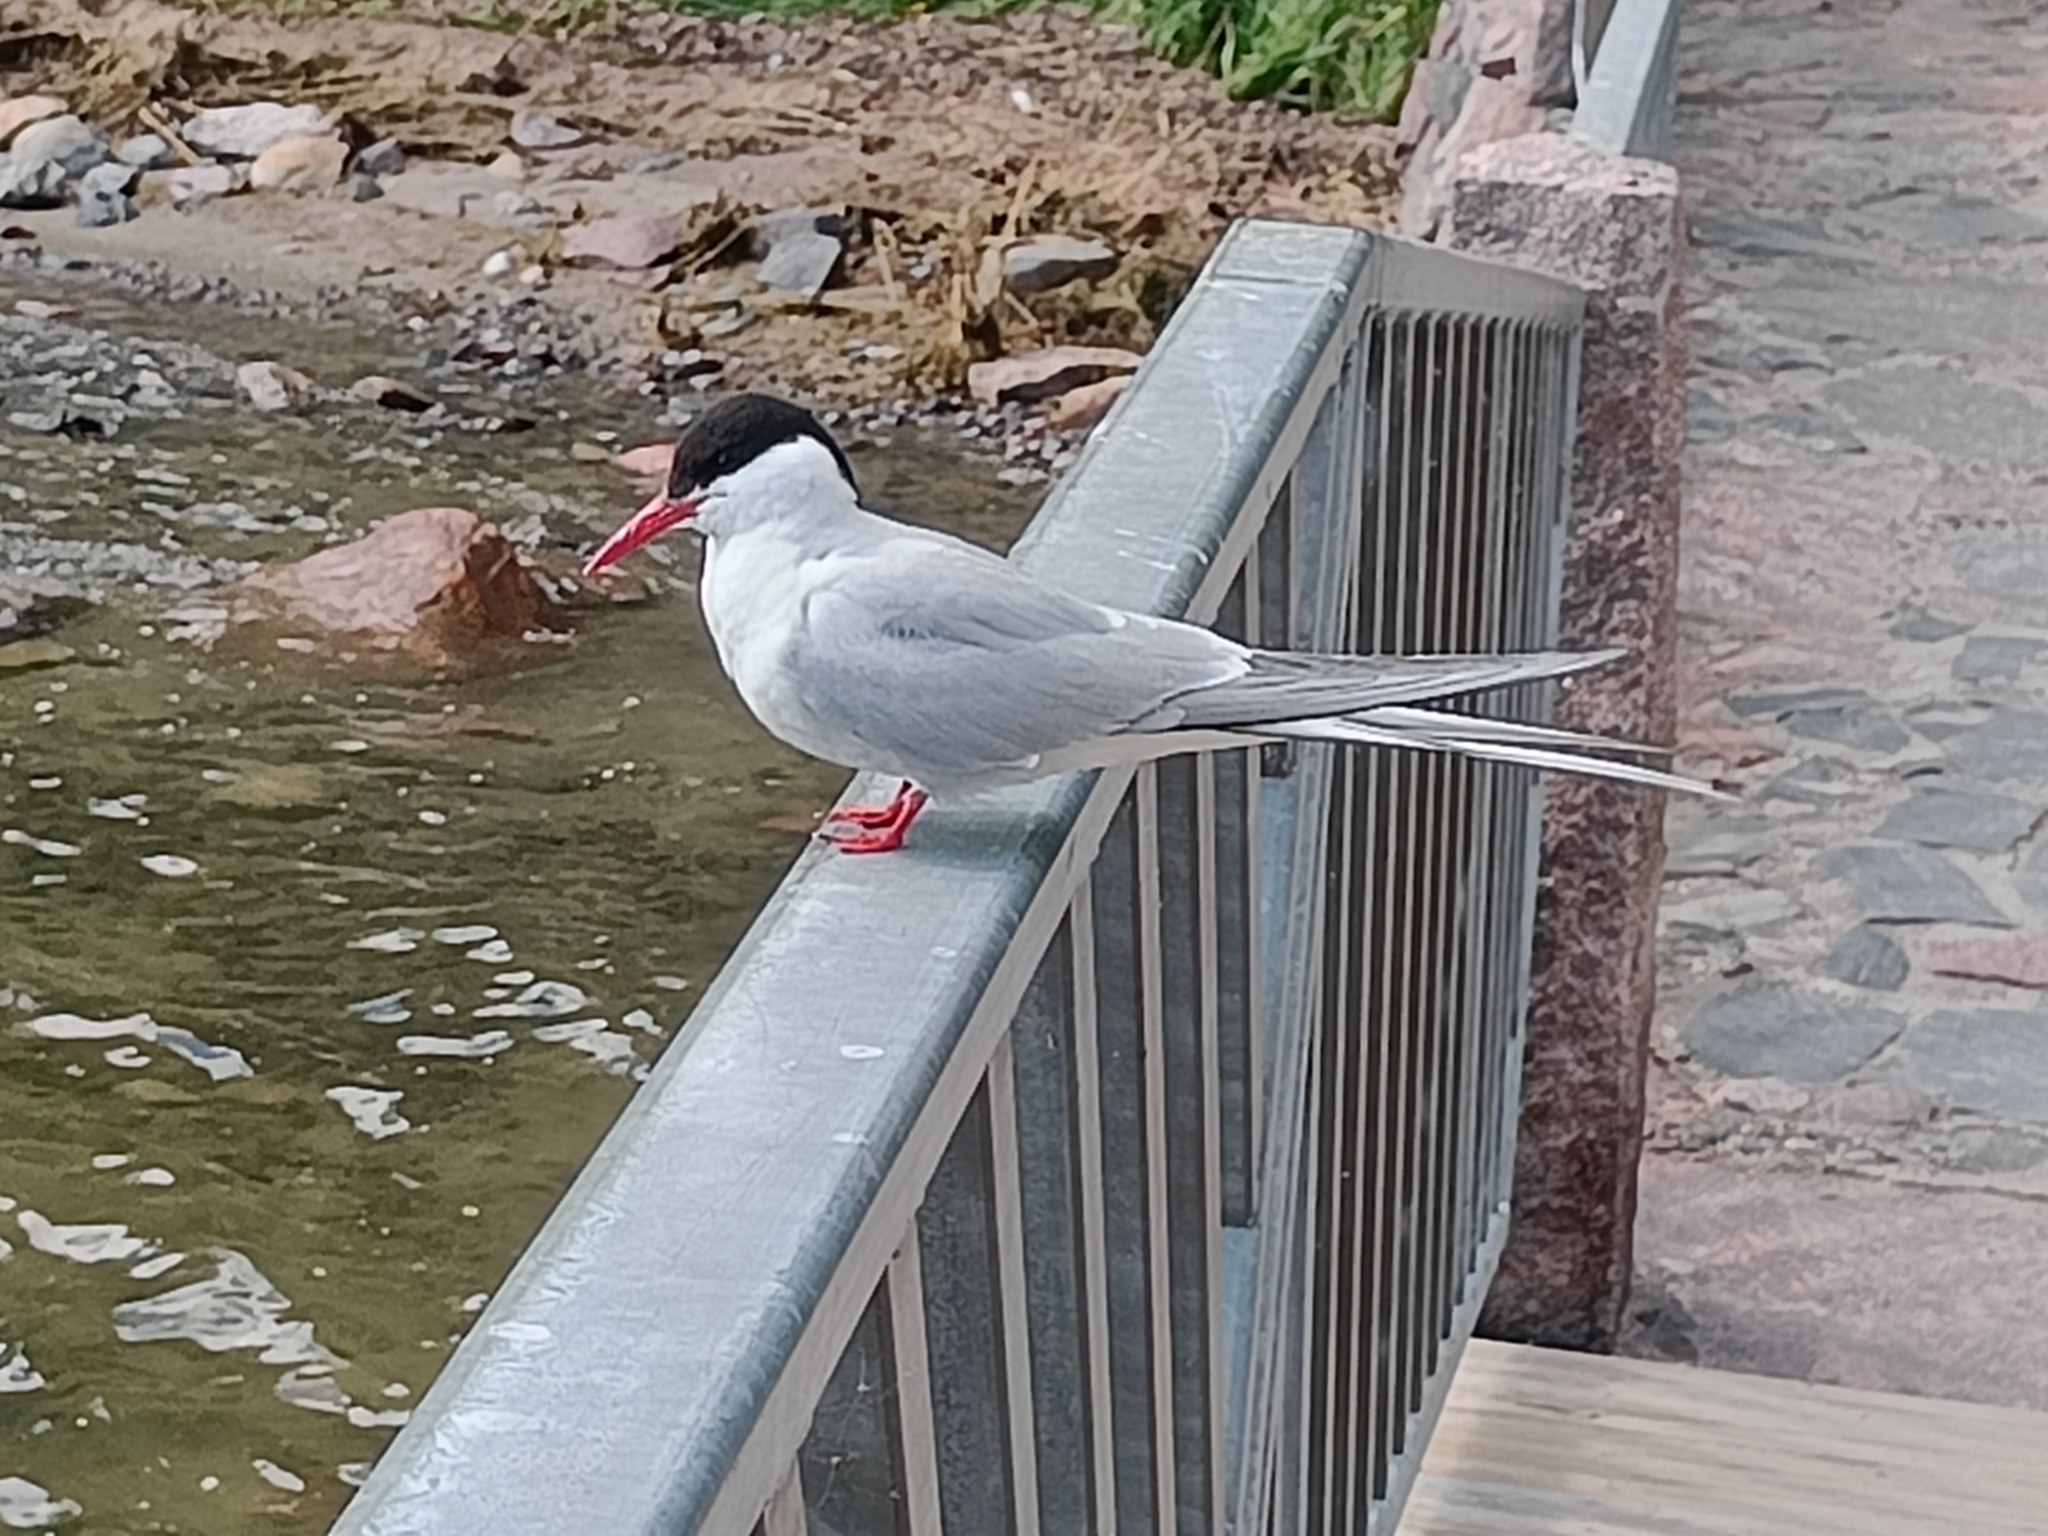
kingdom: Animalia
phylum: Chordata
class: Aves
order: Charadriiformes
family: Laridae
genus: Sterna
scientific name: Sterna paradisaea
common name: Arctic tern
